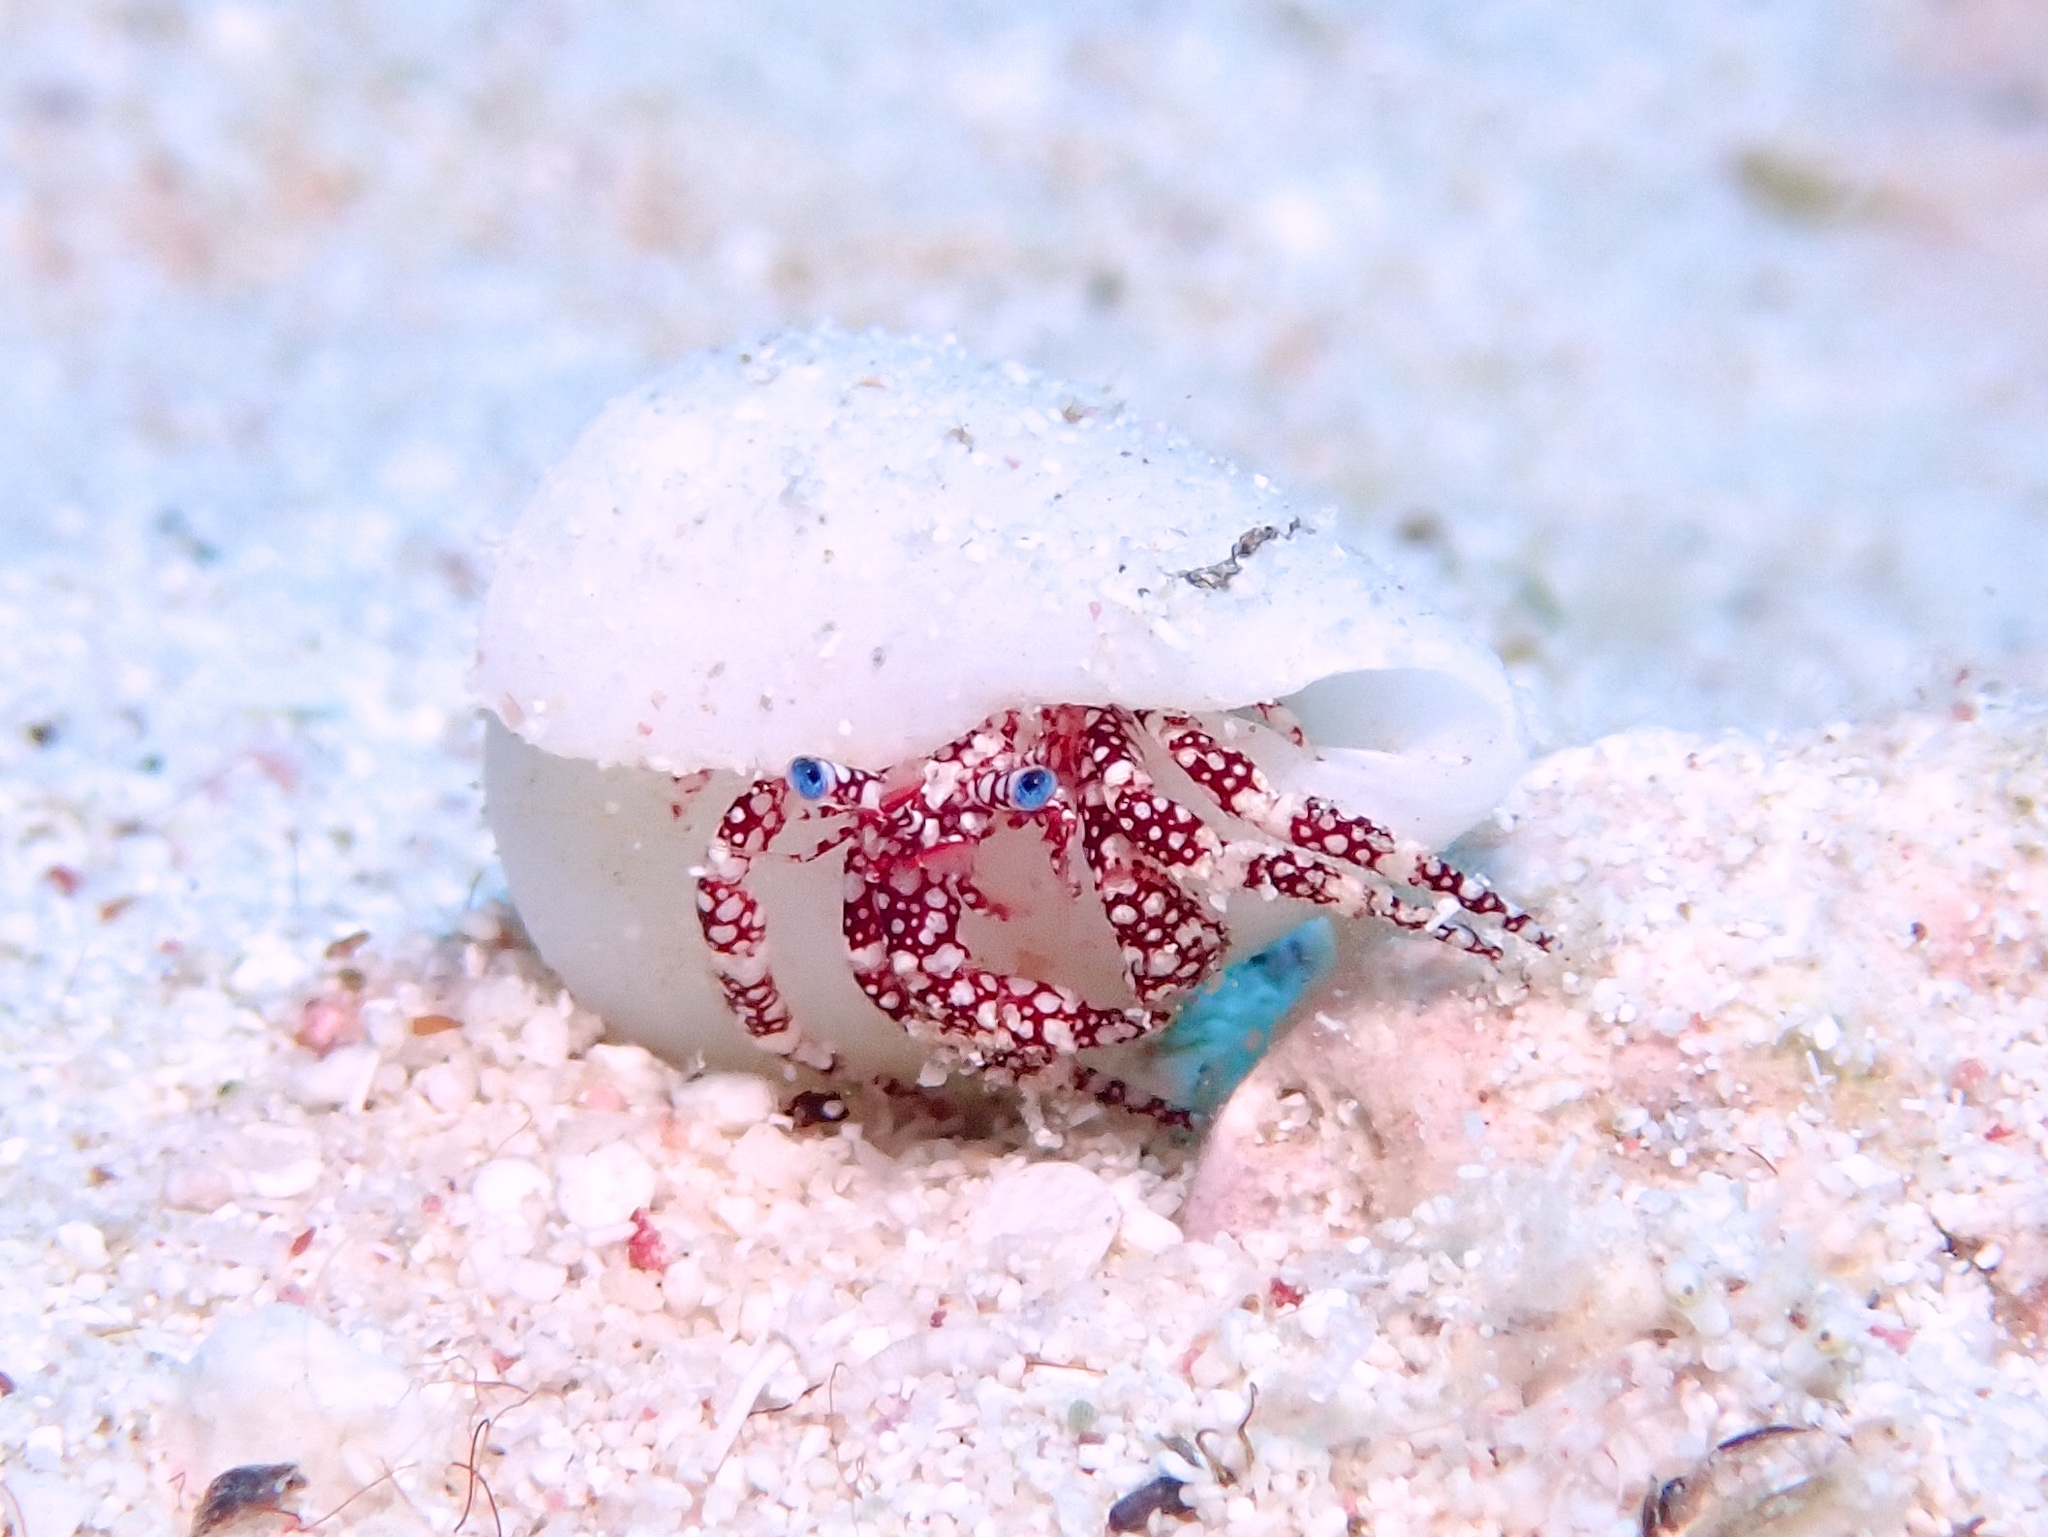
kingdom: Animalia
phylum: Arthropoda
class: Malacostraca
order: Decapoda
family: Diogenidae
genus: Paguristes
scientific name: Paguristes puncticeps
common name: White speckled hermit
